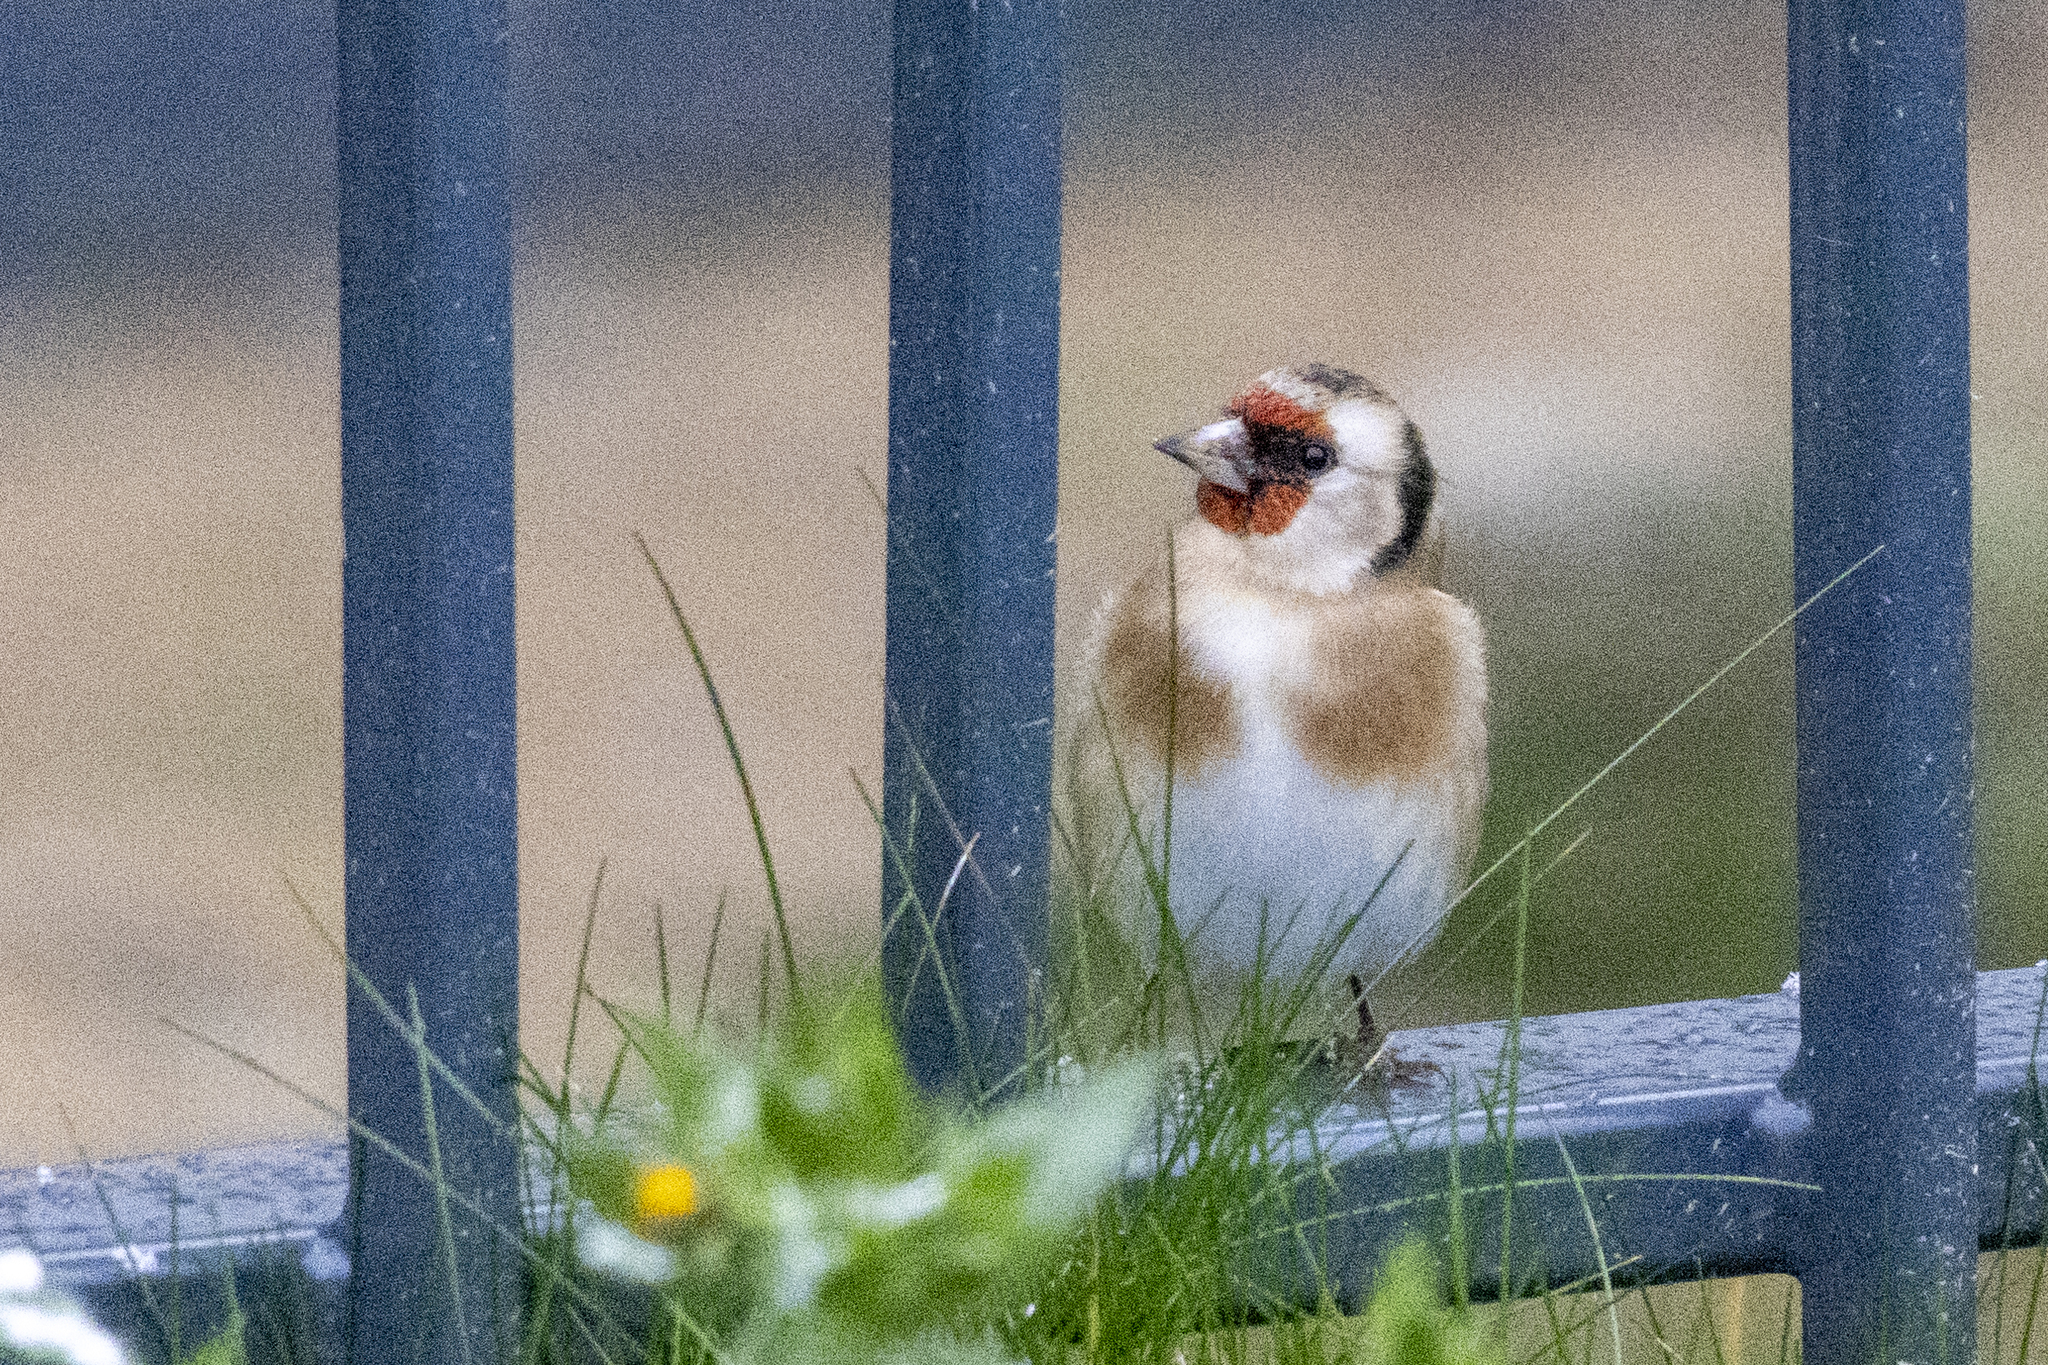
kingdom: Animalia
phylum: Chordata
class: Aves
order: Passeriformes
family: Fringillidae
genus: Carduelis
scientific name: Carduelis carduelis
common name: European goldfinch
